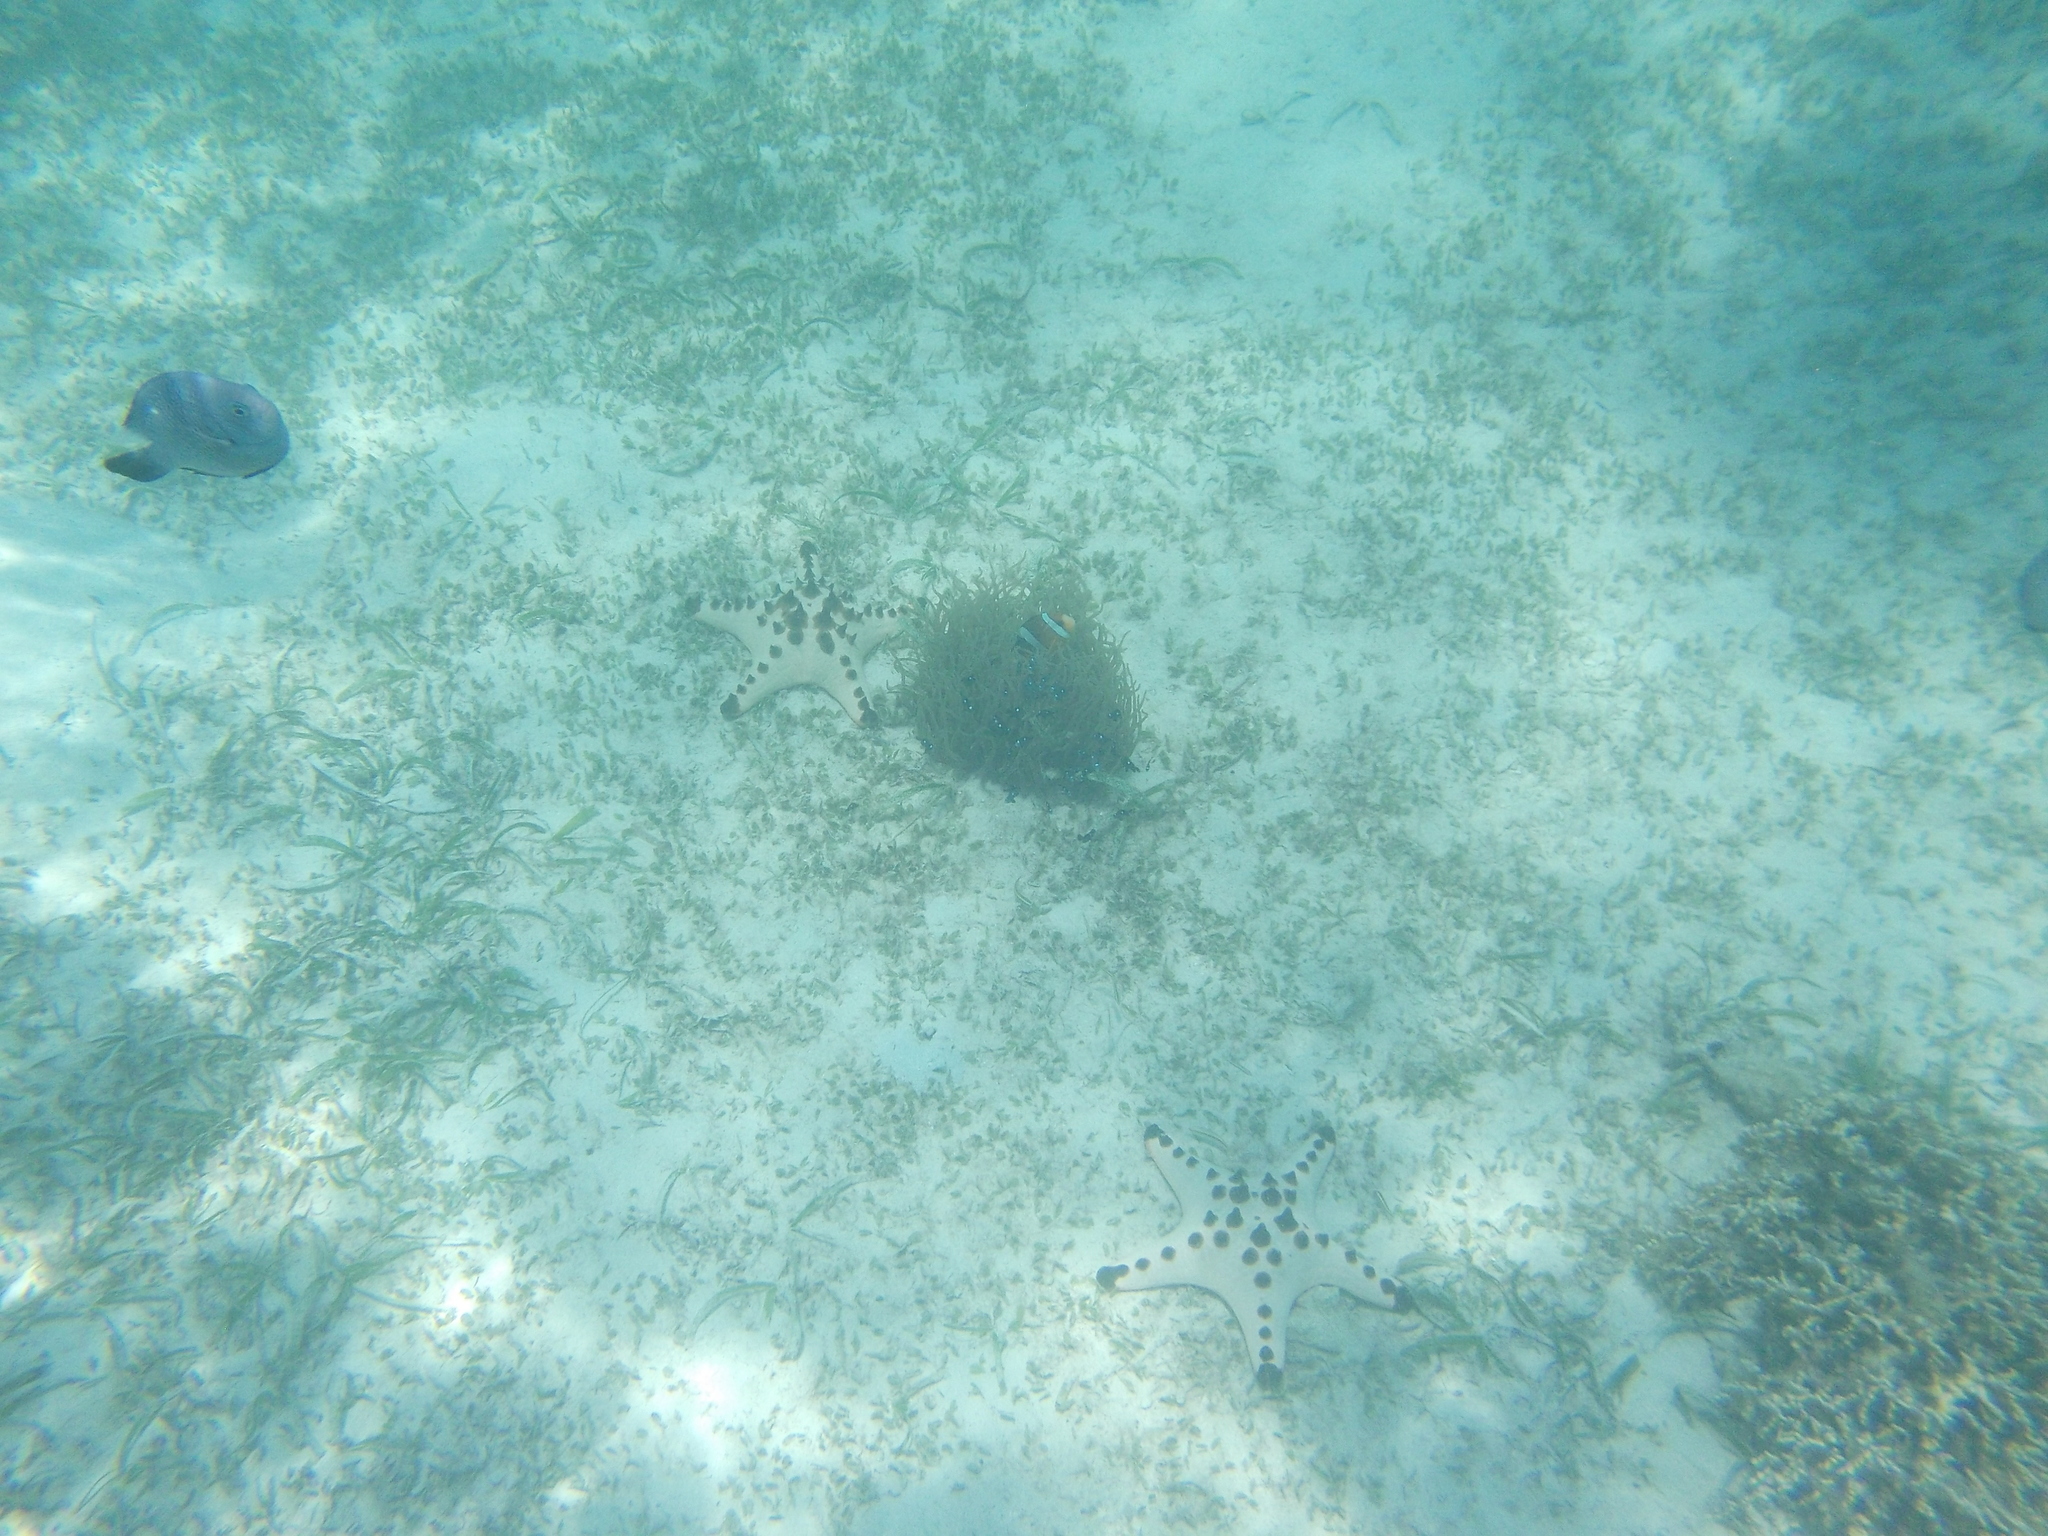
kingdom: Animalia
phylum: Chordata
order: Perciformes
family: Pomacentridae
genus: Amphiprion
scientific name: Amphiprion clarkii
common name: Clark's anemonefish
